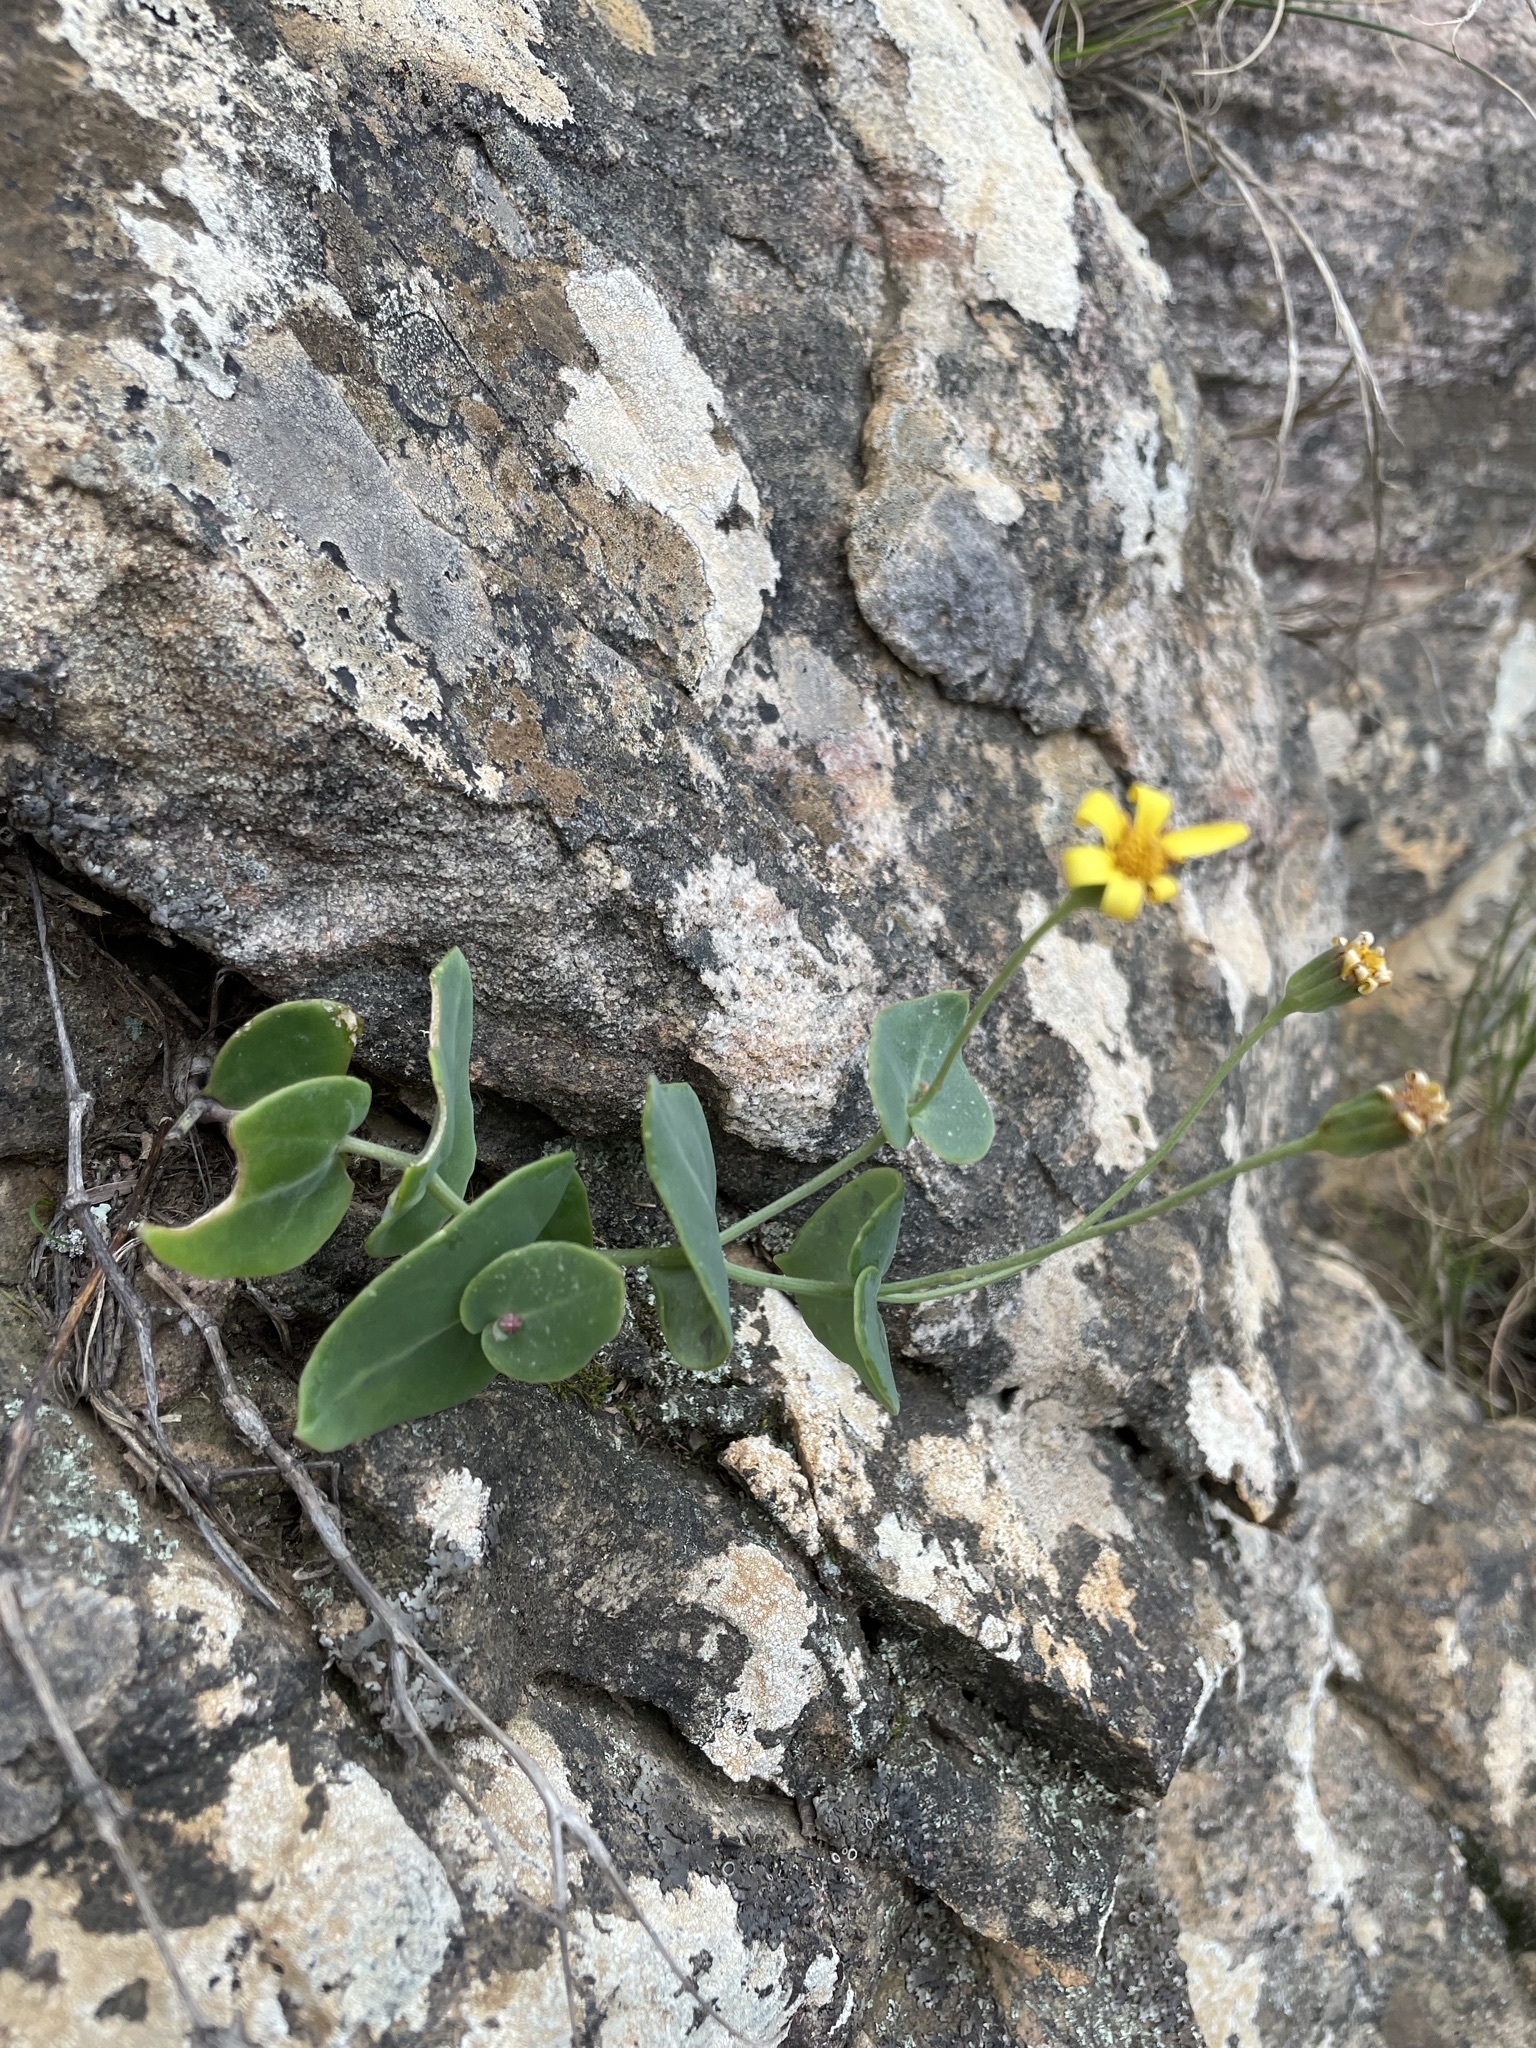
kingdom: Plantae
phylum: Tracheophyta
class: Magnoliopsida
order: Asterales
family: Asteraceae
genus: Othonna
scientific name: Othonna perfoliata
